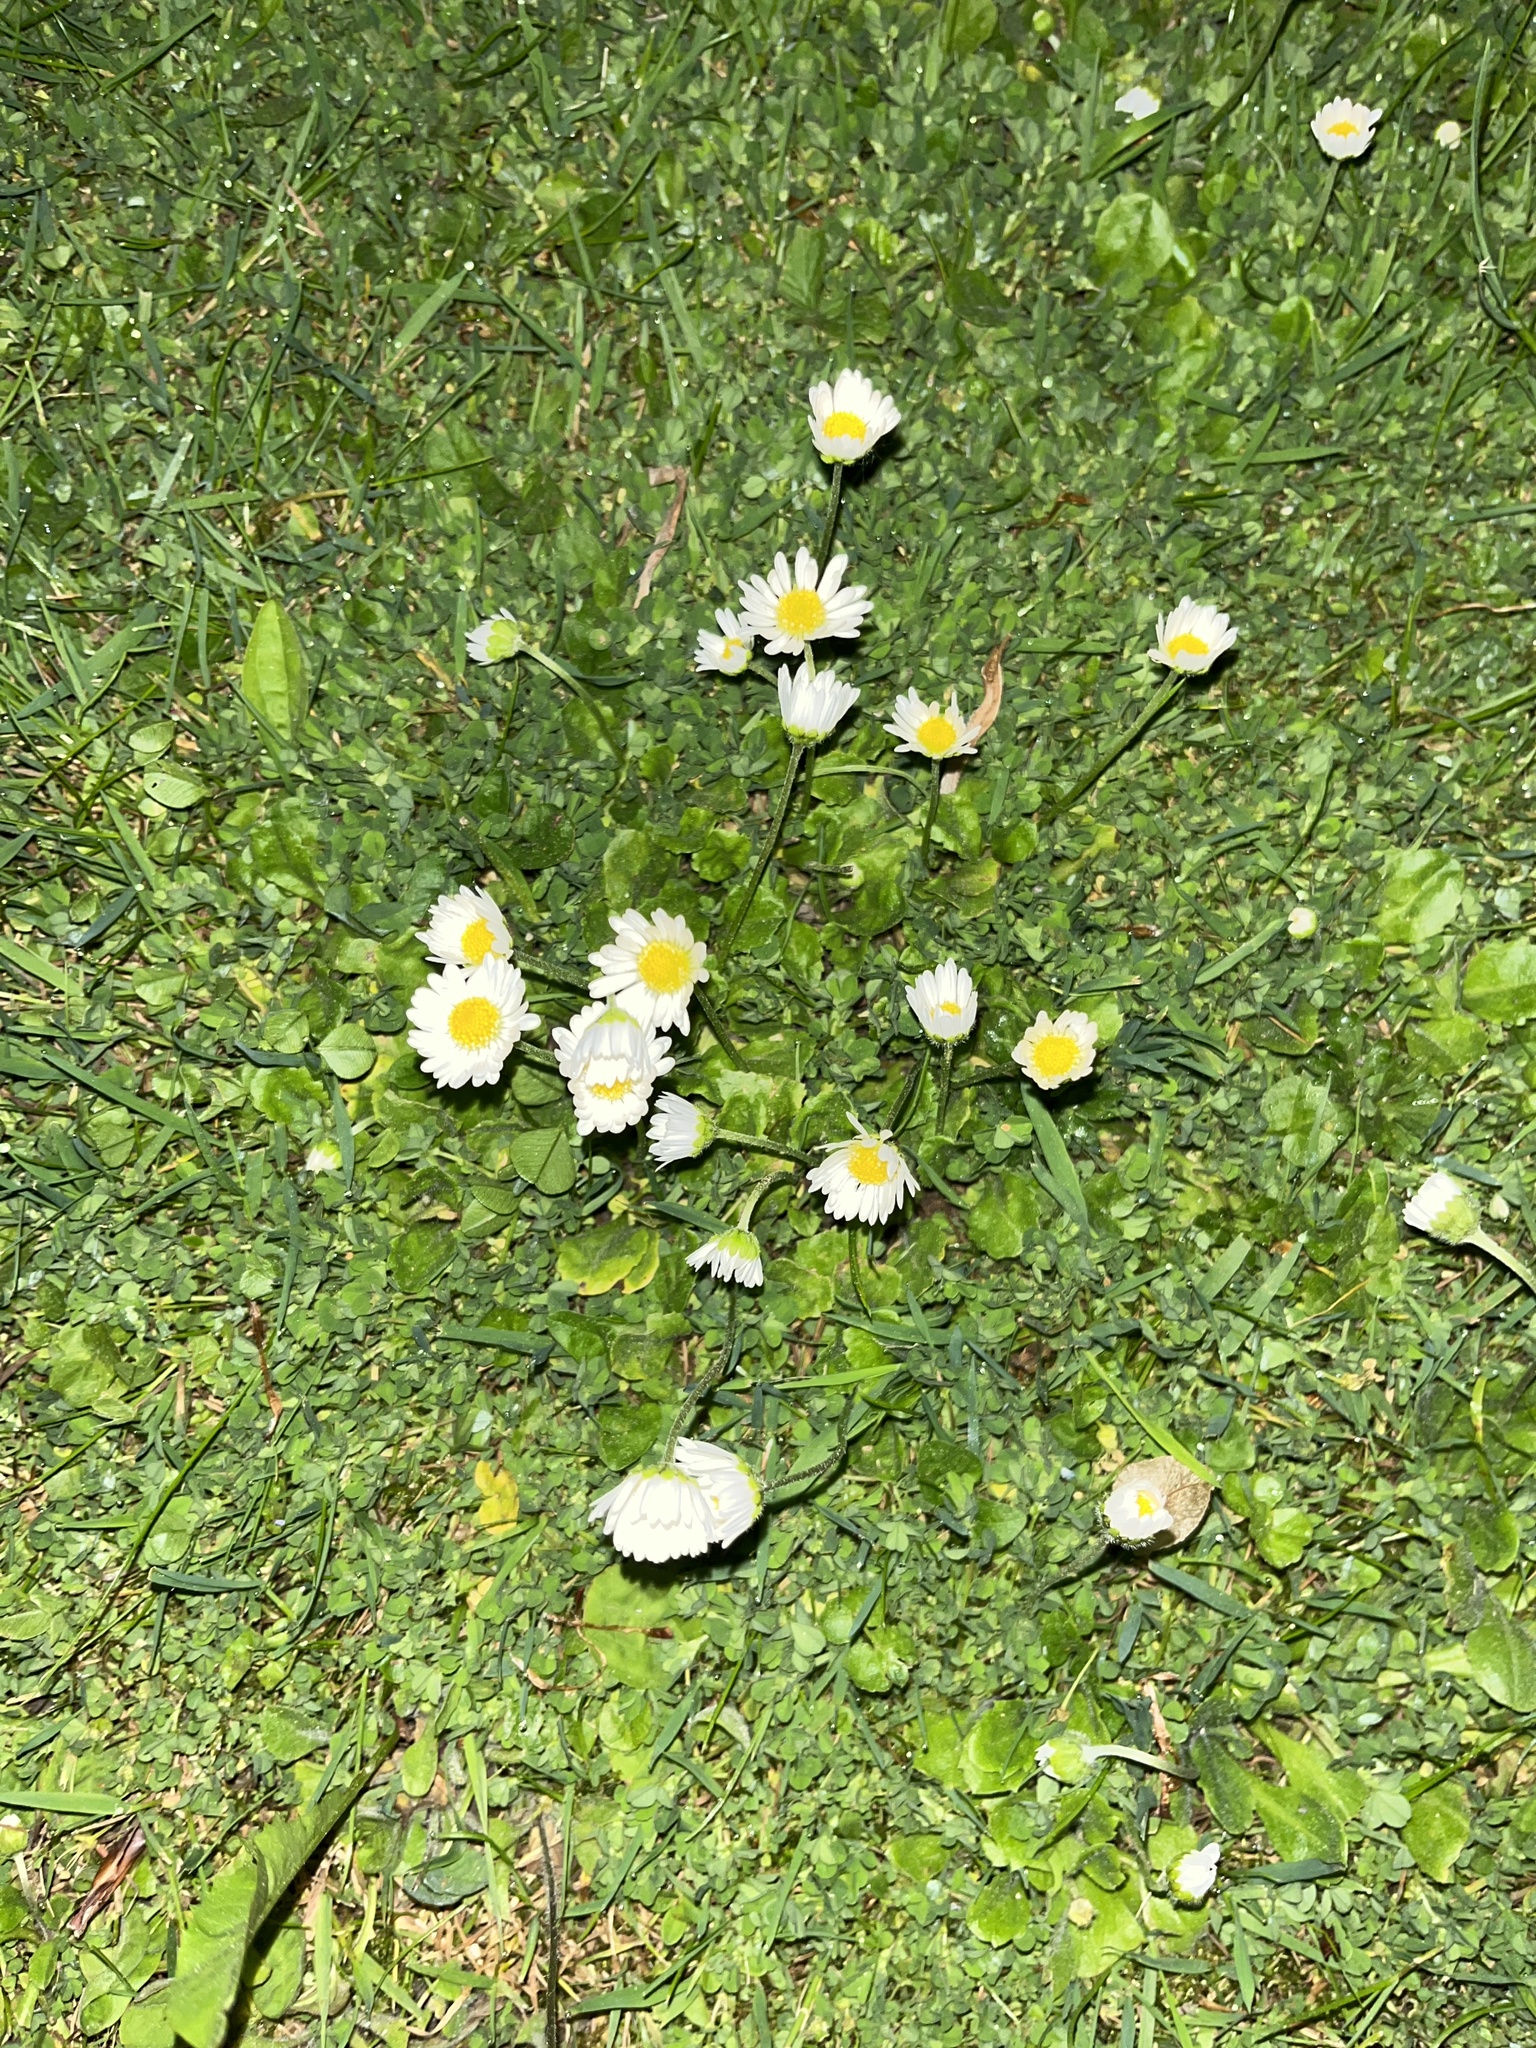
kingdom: Plantae
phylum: Tracheophyta
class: Magnoliopsida
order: Asterales
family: Asteraceae
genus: Bellis
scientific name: Bellis perennis
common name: Lawndaisy
